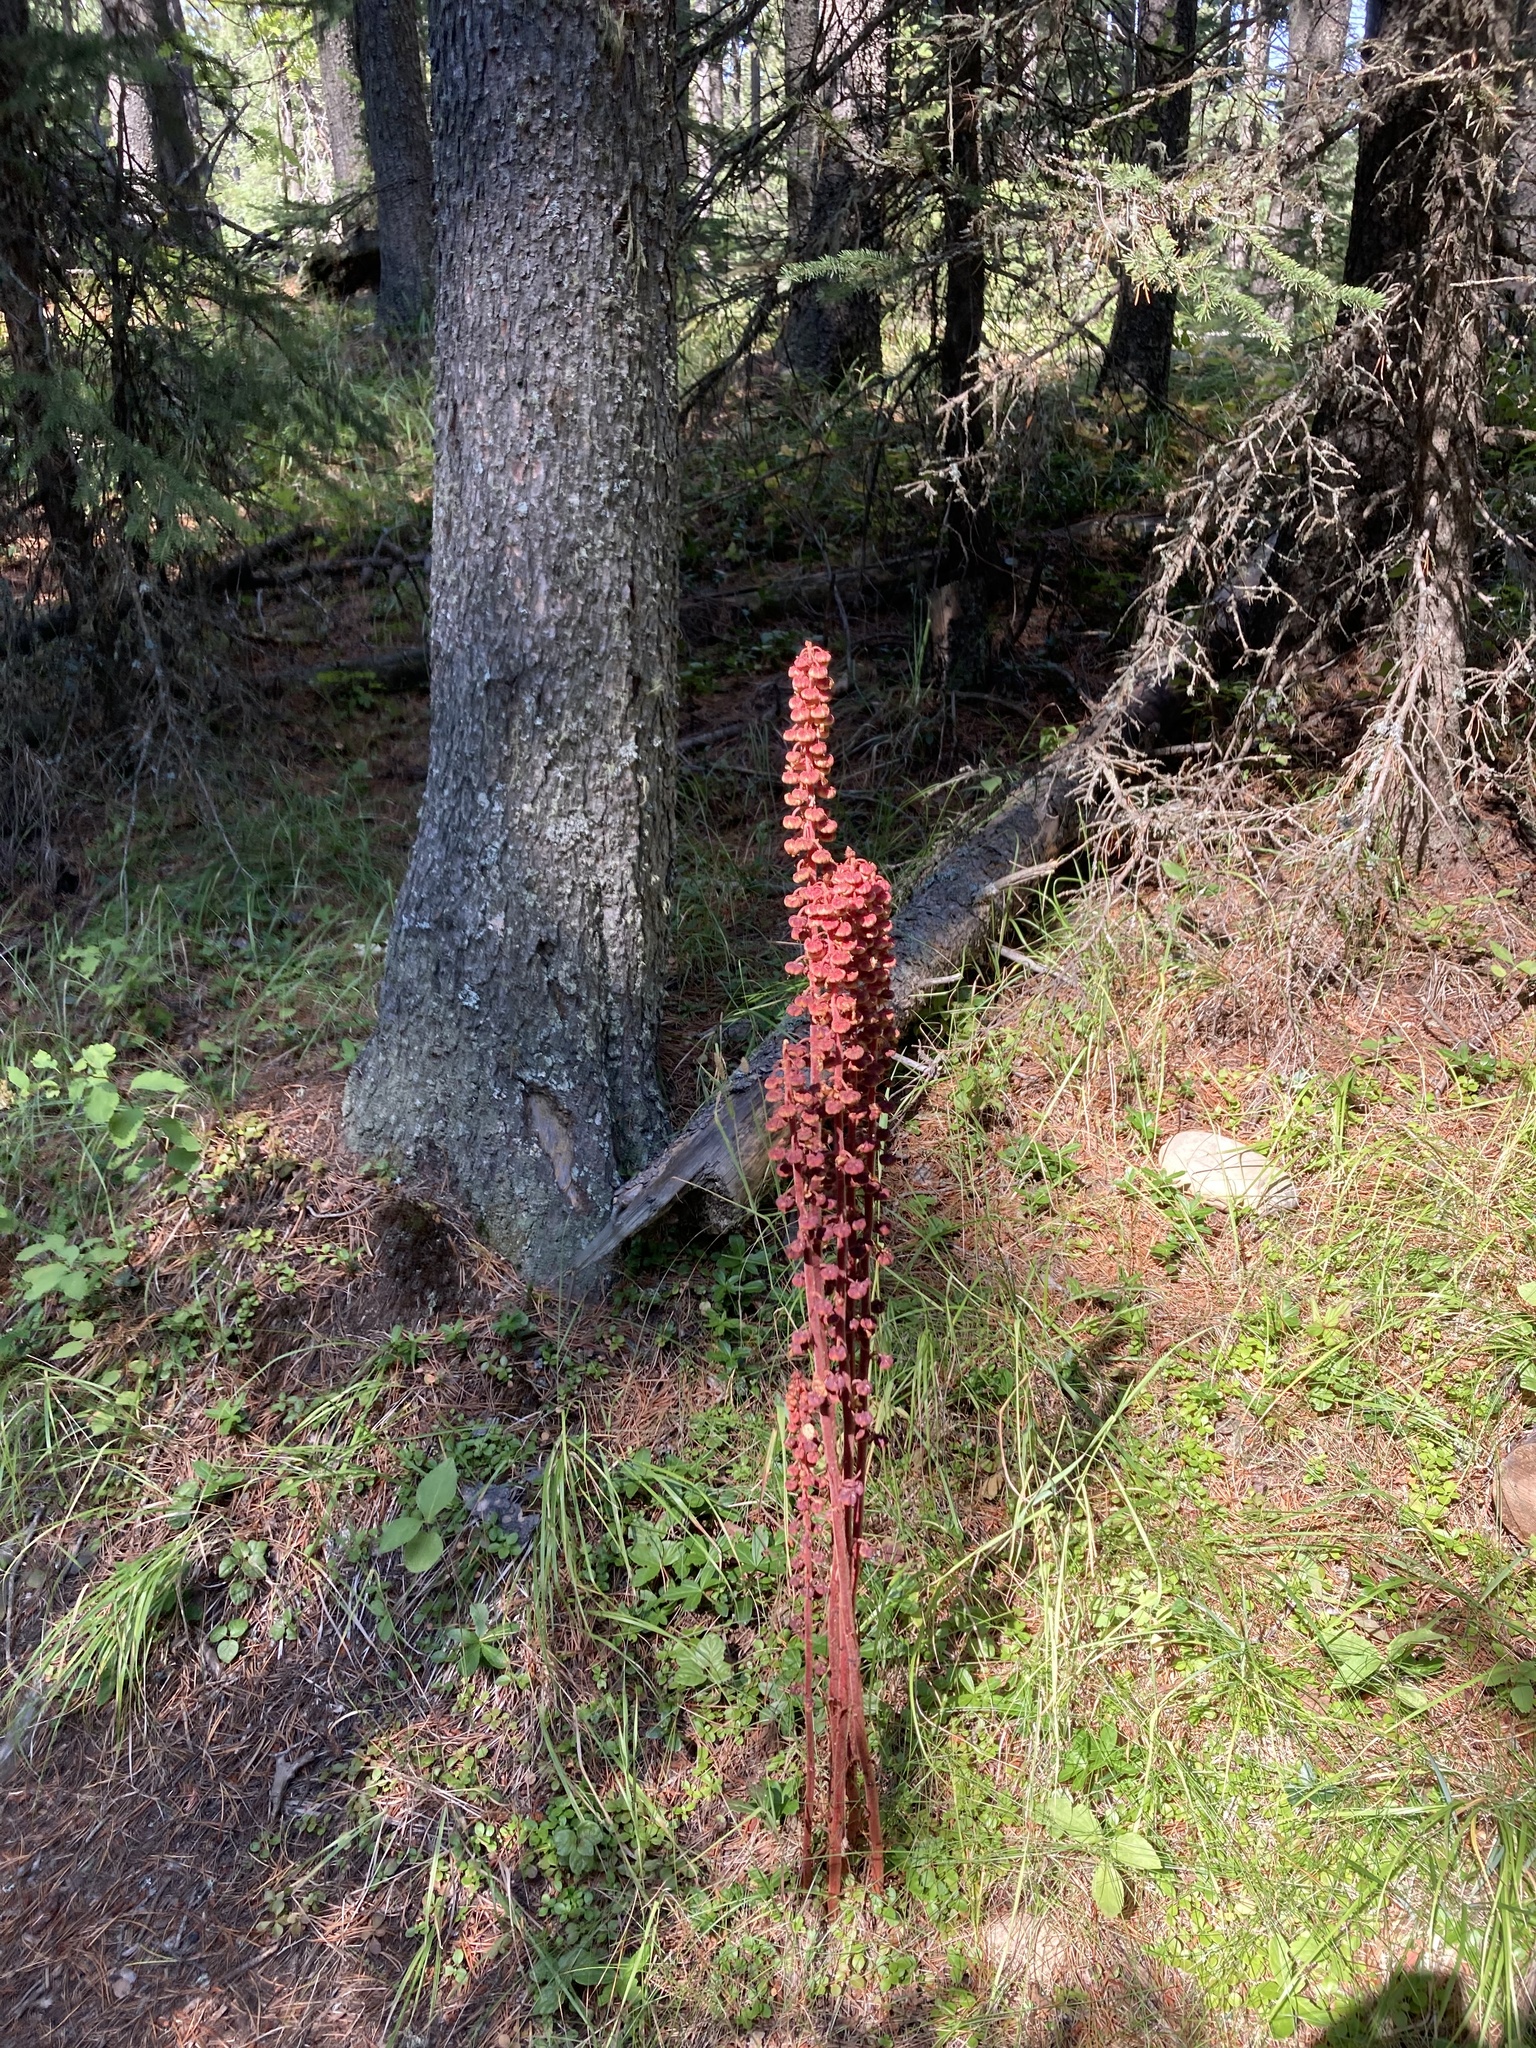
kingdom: Plantae
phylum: Tracheophyta
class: Magnoliopsida
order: Ericales
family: Ericaceae
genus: Pterospora
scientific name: Pterospora andromedea
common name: Giant bird's-nest
